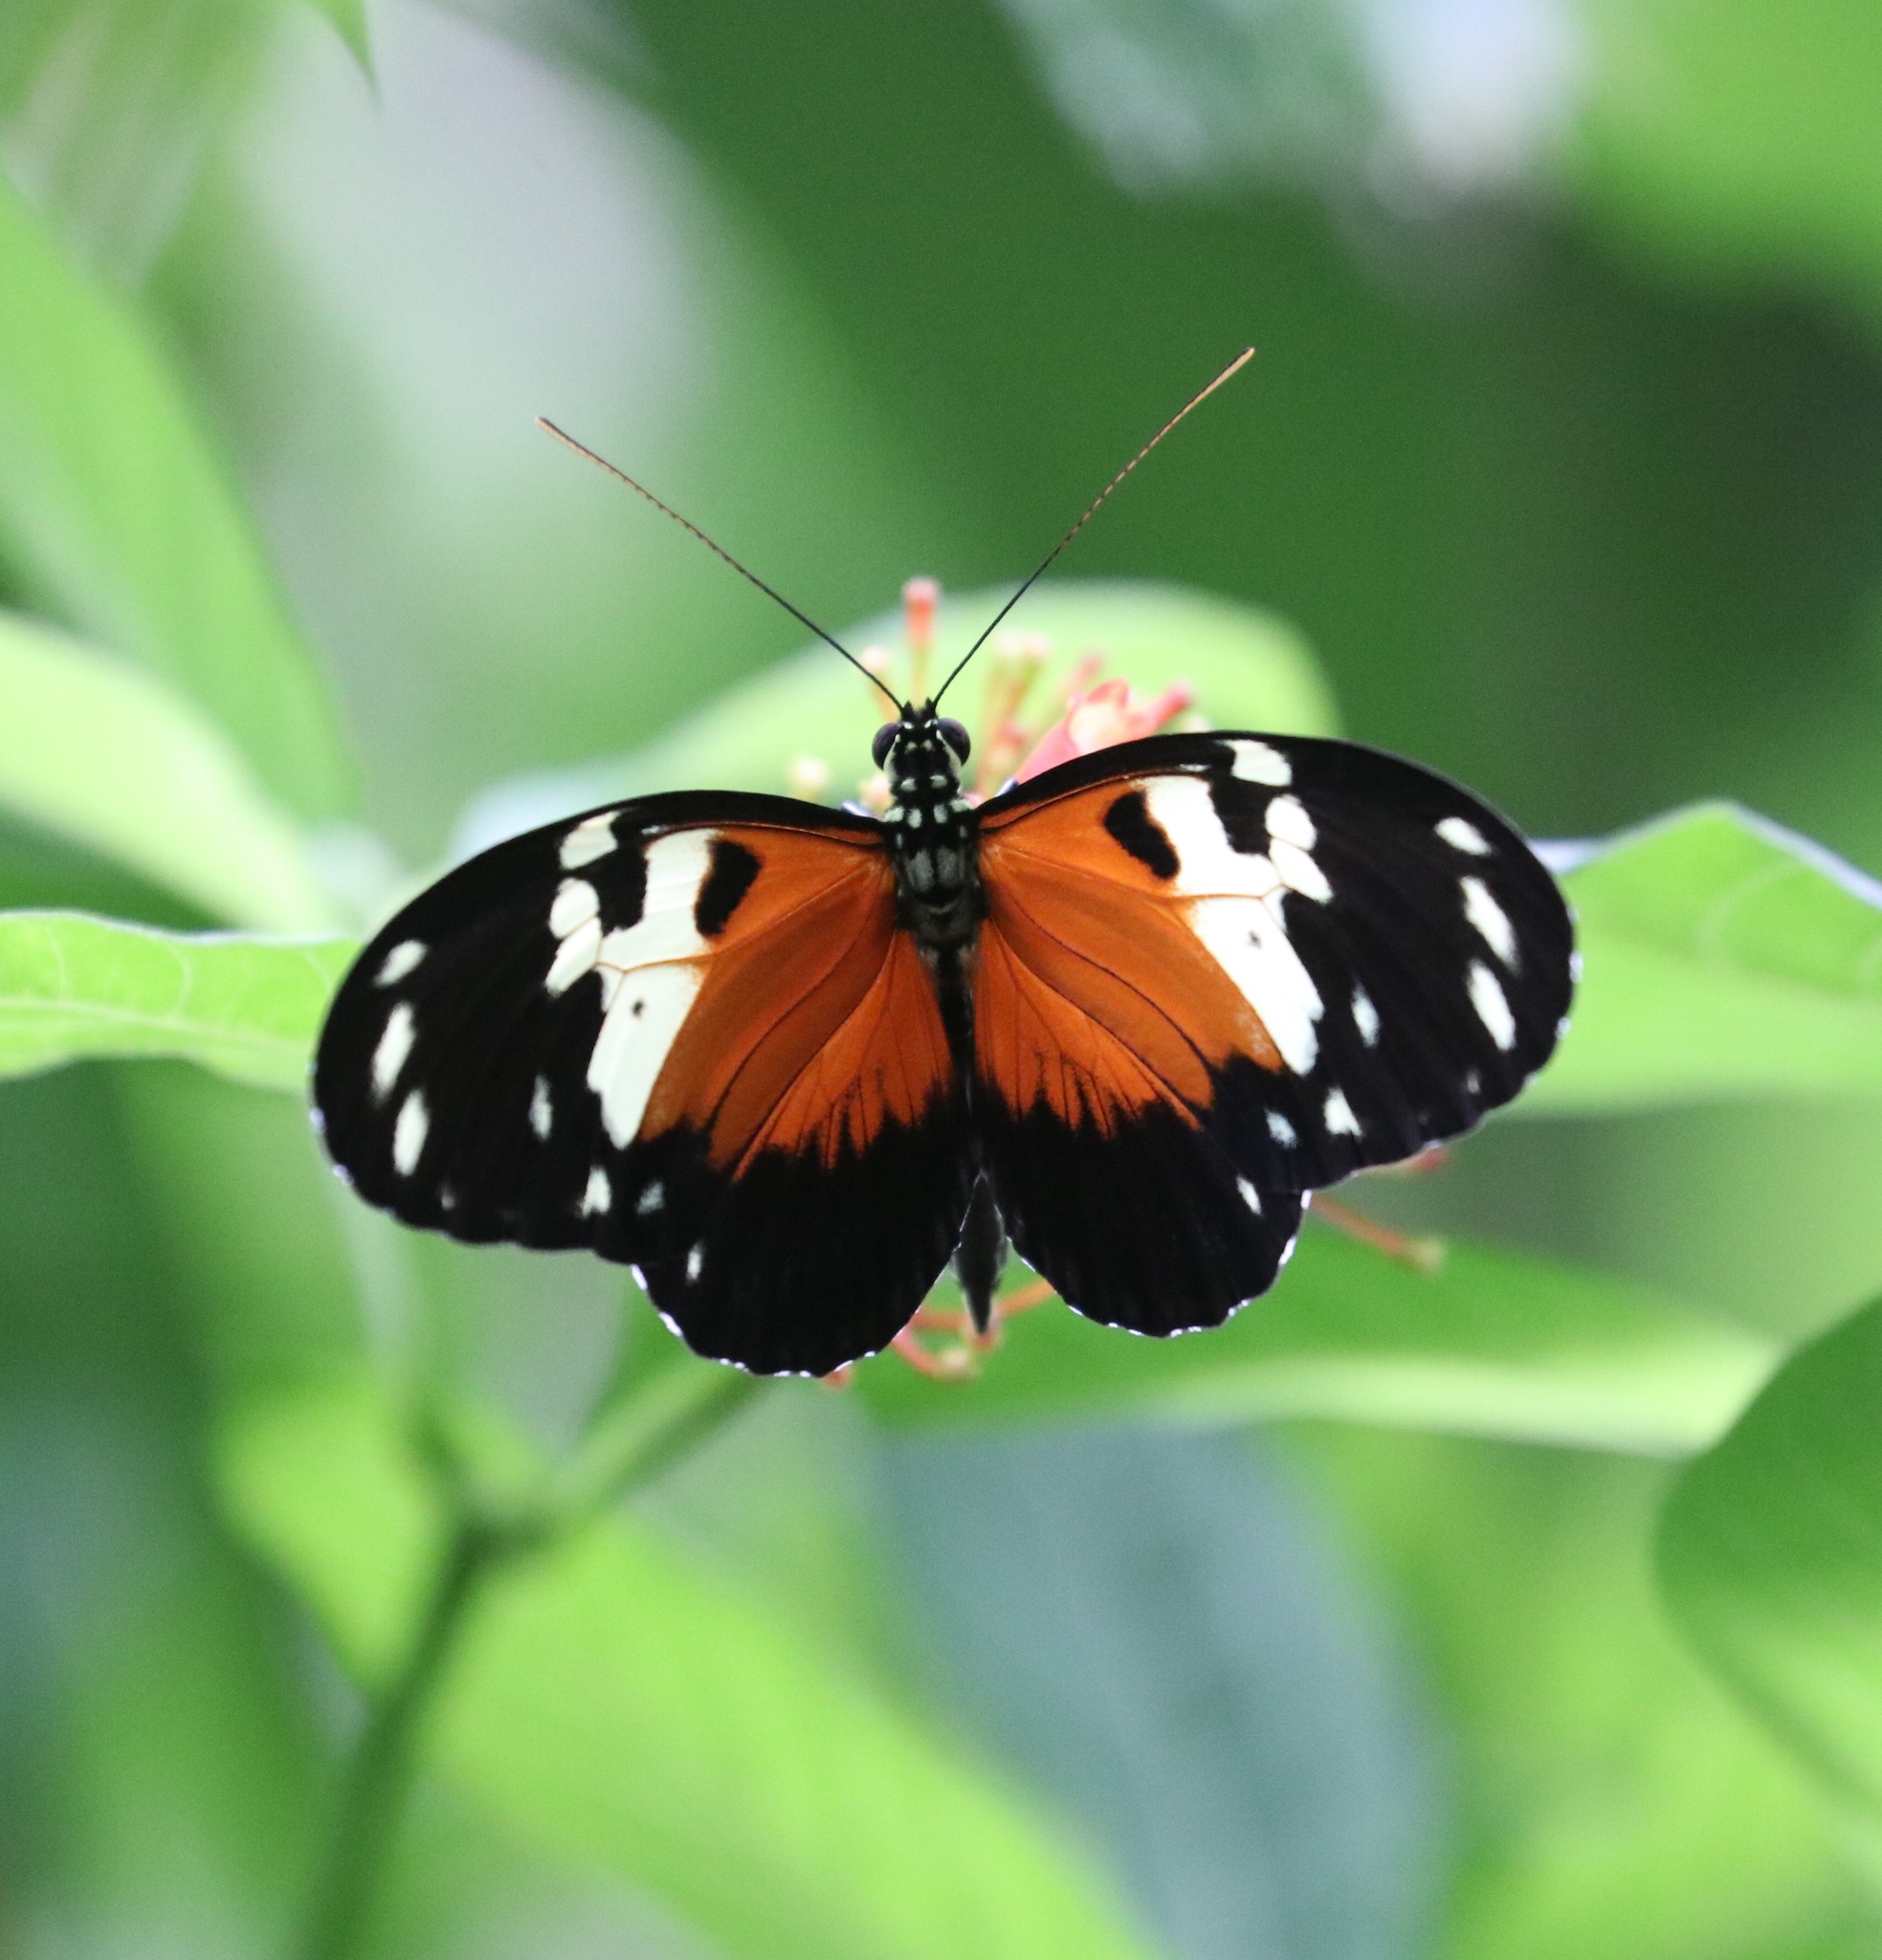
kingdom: Animalia
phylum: Arthropoda
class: Insecta
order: Lepidoptera
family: Nymphalidae
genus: Heliconius
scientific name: Heliconius hecale
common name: Tiger longwing
